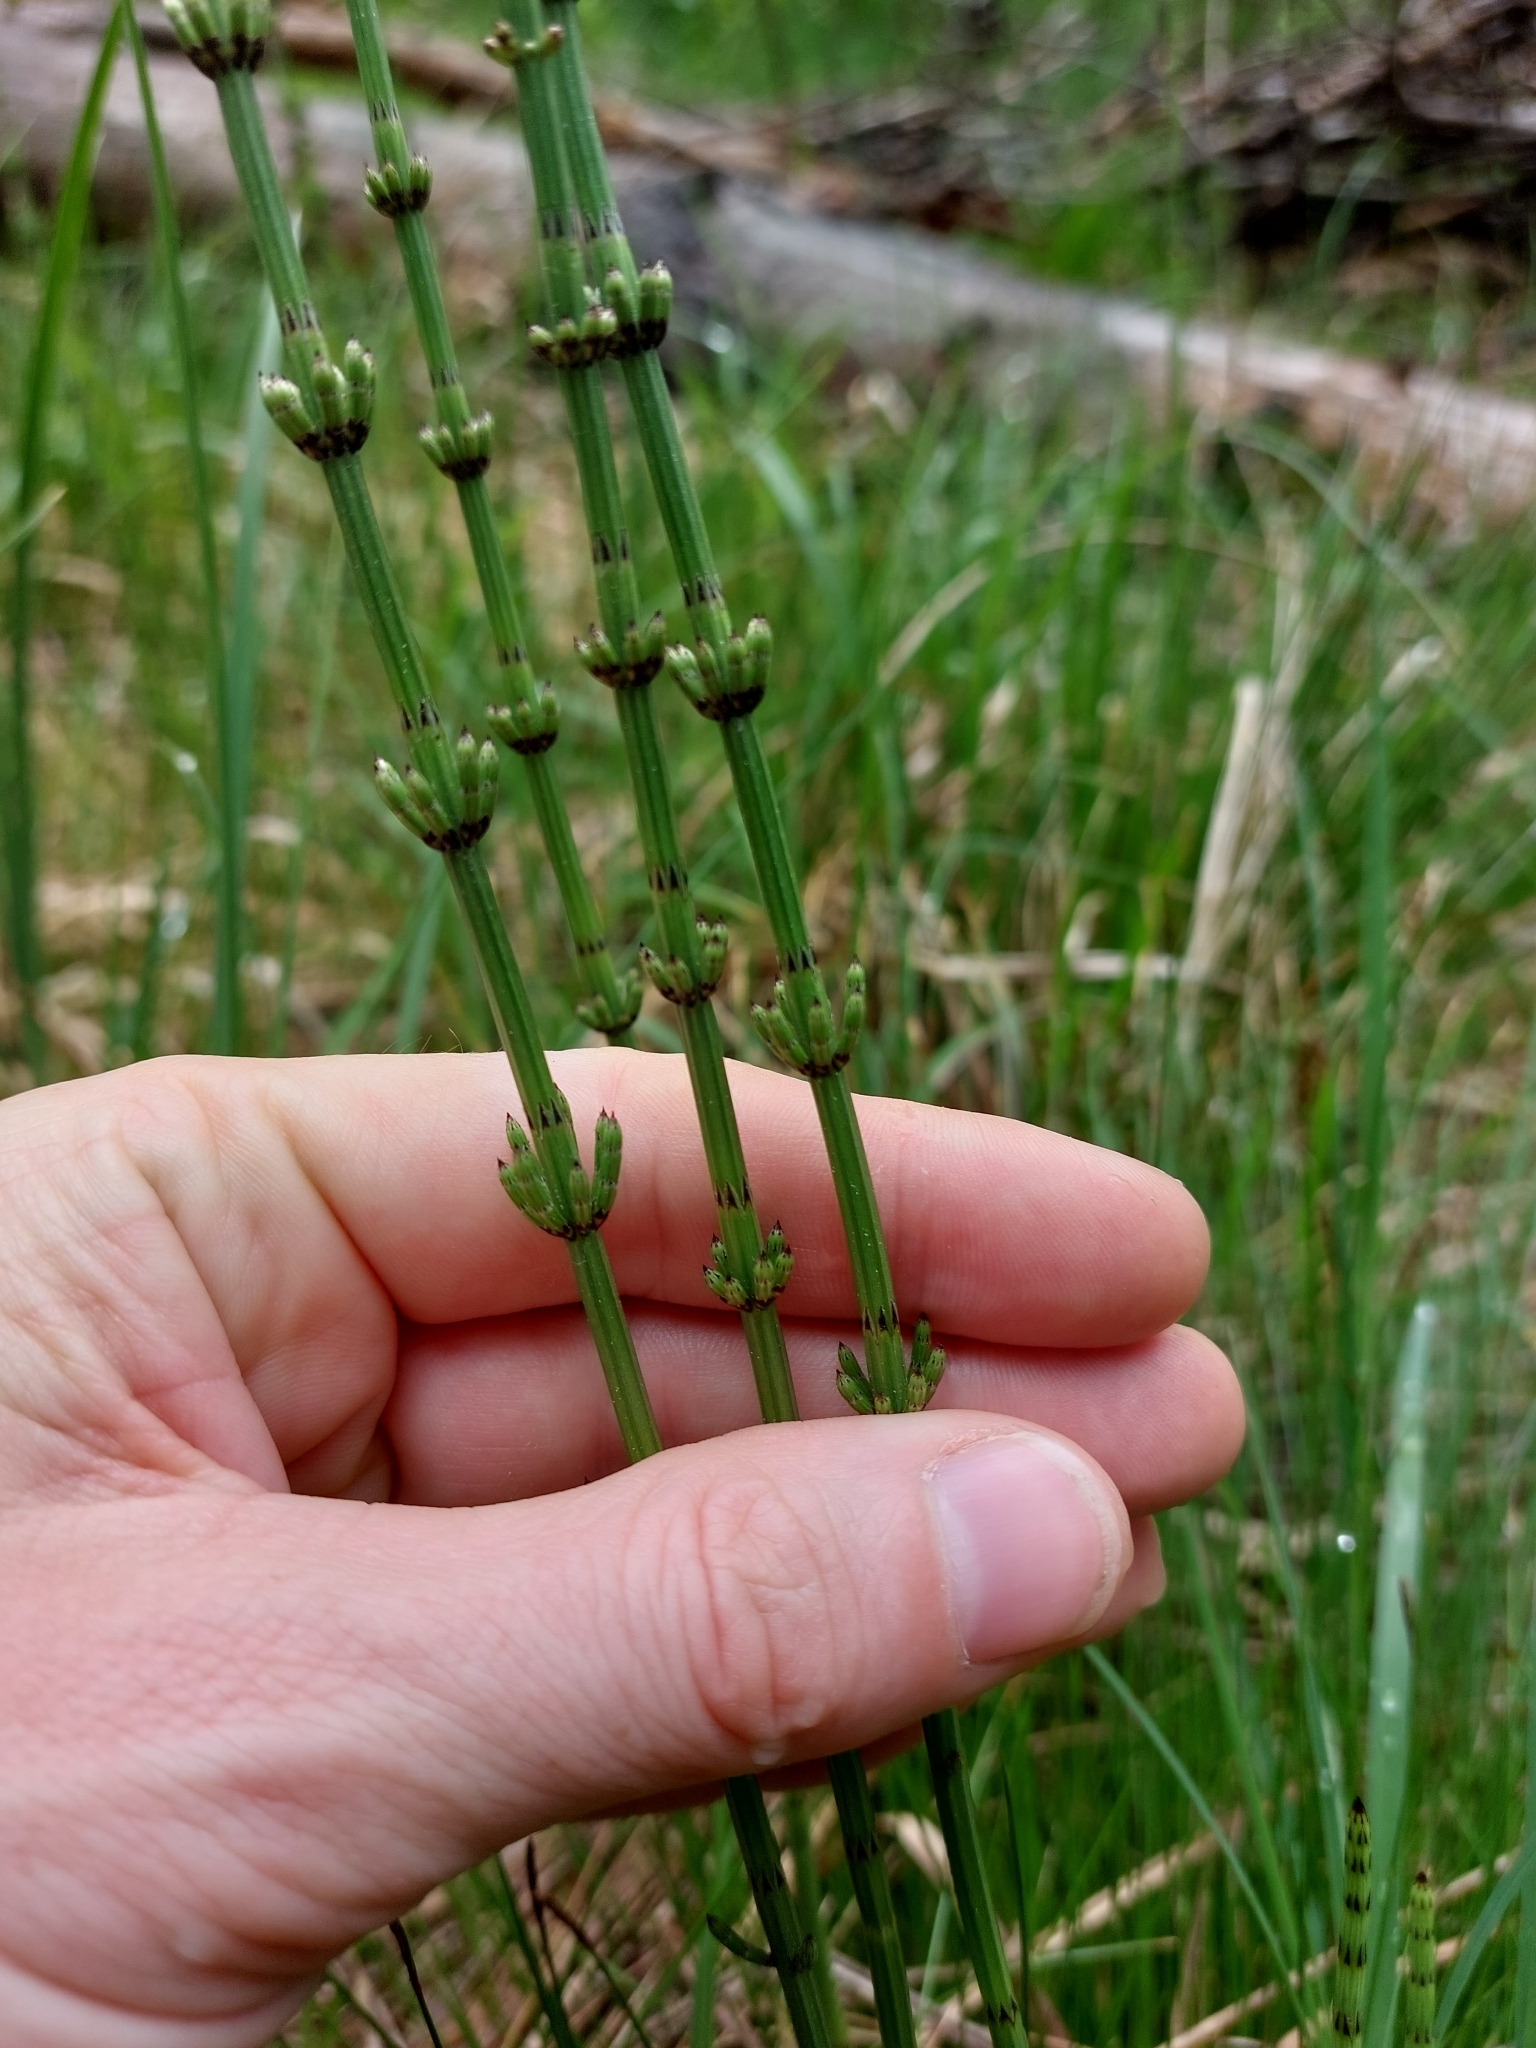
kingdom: Plantae
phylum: Tracheophyta
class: Polypodiopsida
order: Equisetales
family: Equisetaceae
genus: Equisetum
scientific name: Equisetum palustre
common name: Marsh horsetail
